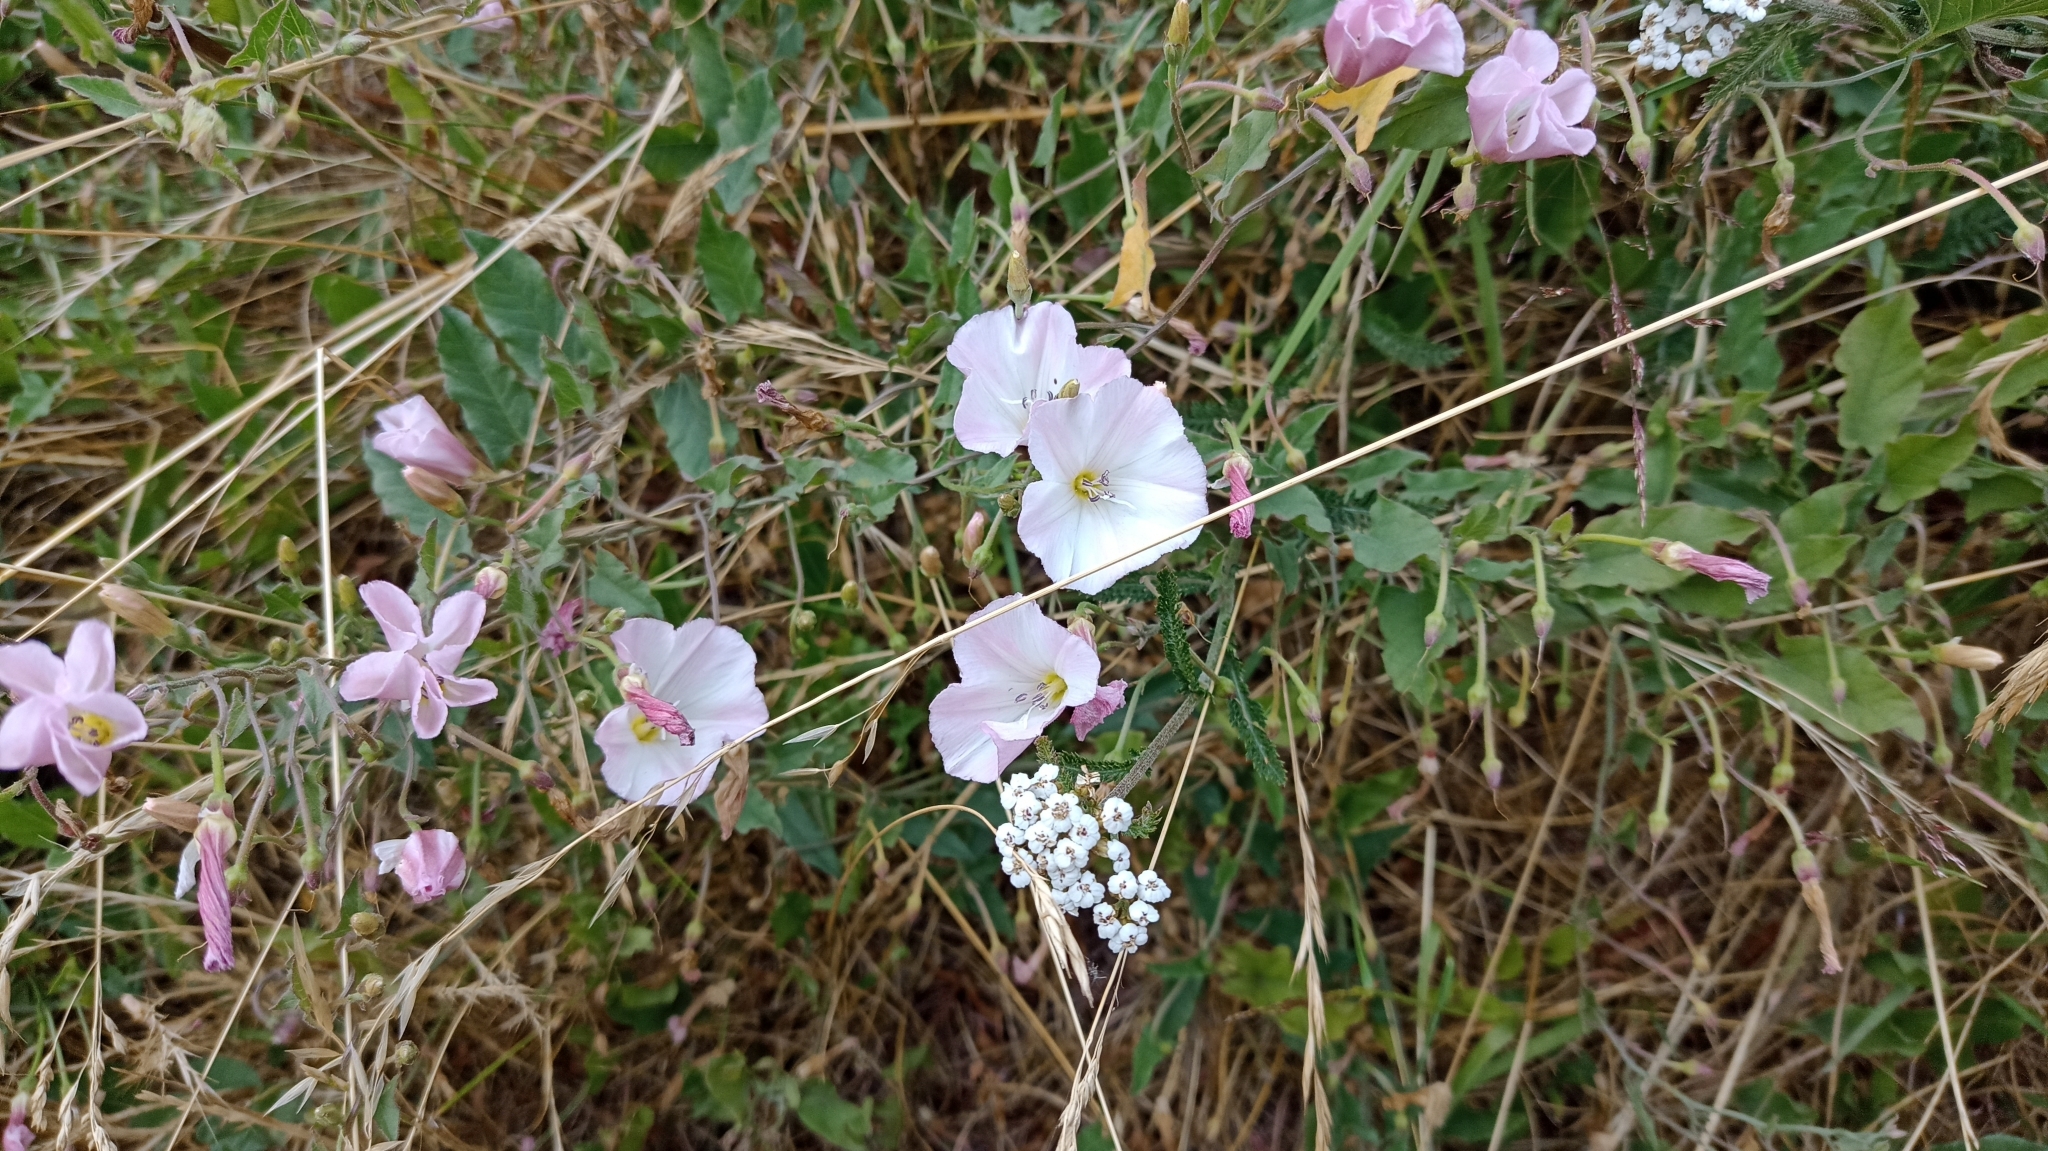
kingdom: Plantae
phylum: Tracheophyta
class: Magnoliopsida
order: Solanales
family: Convolvulaceae
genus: Convolvulus
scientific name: Convolvulus arvensis
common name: Field bindweed
